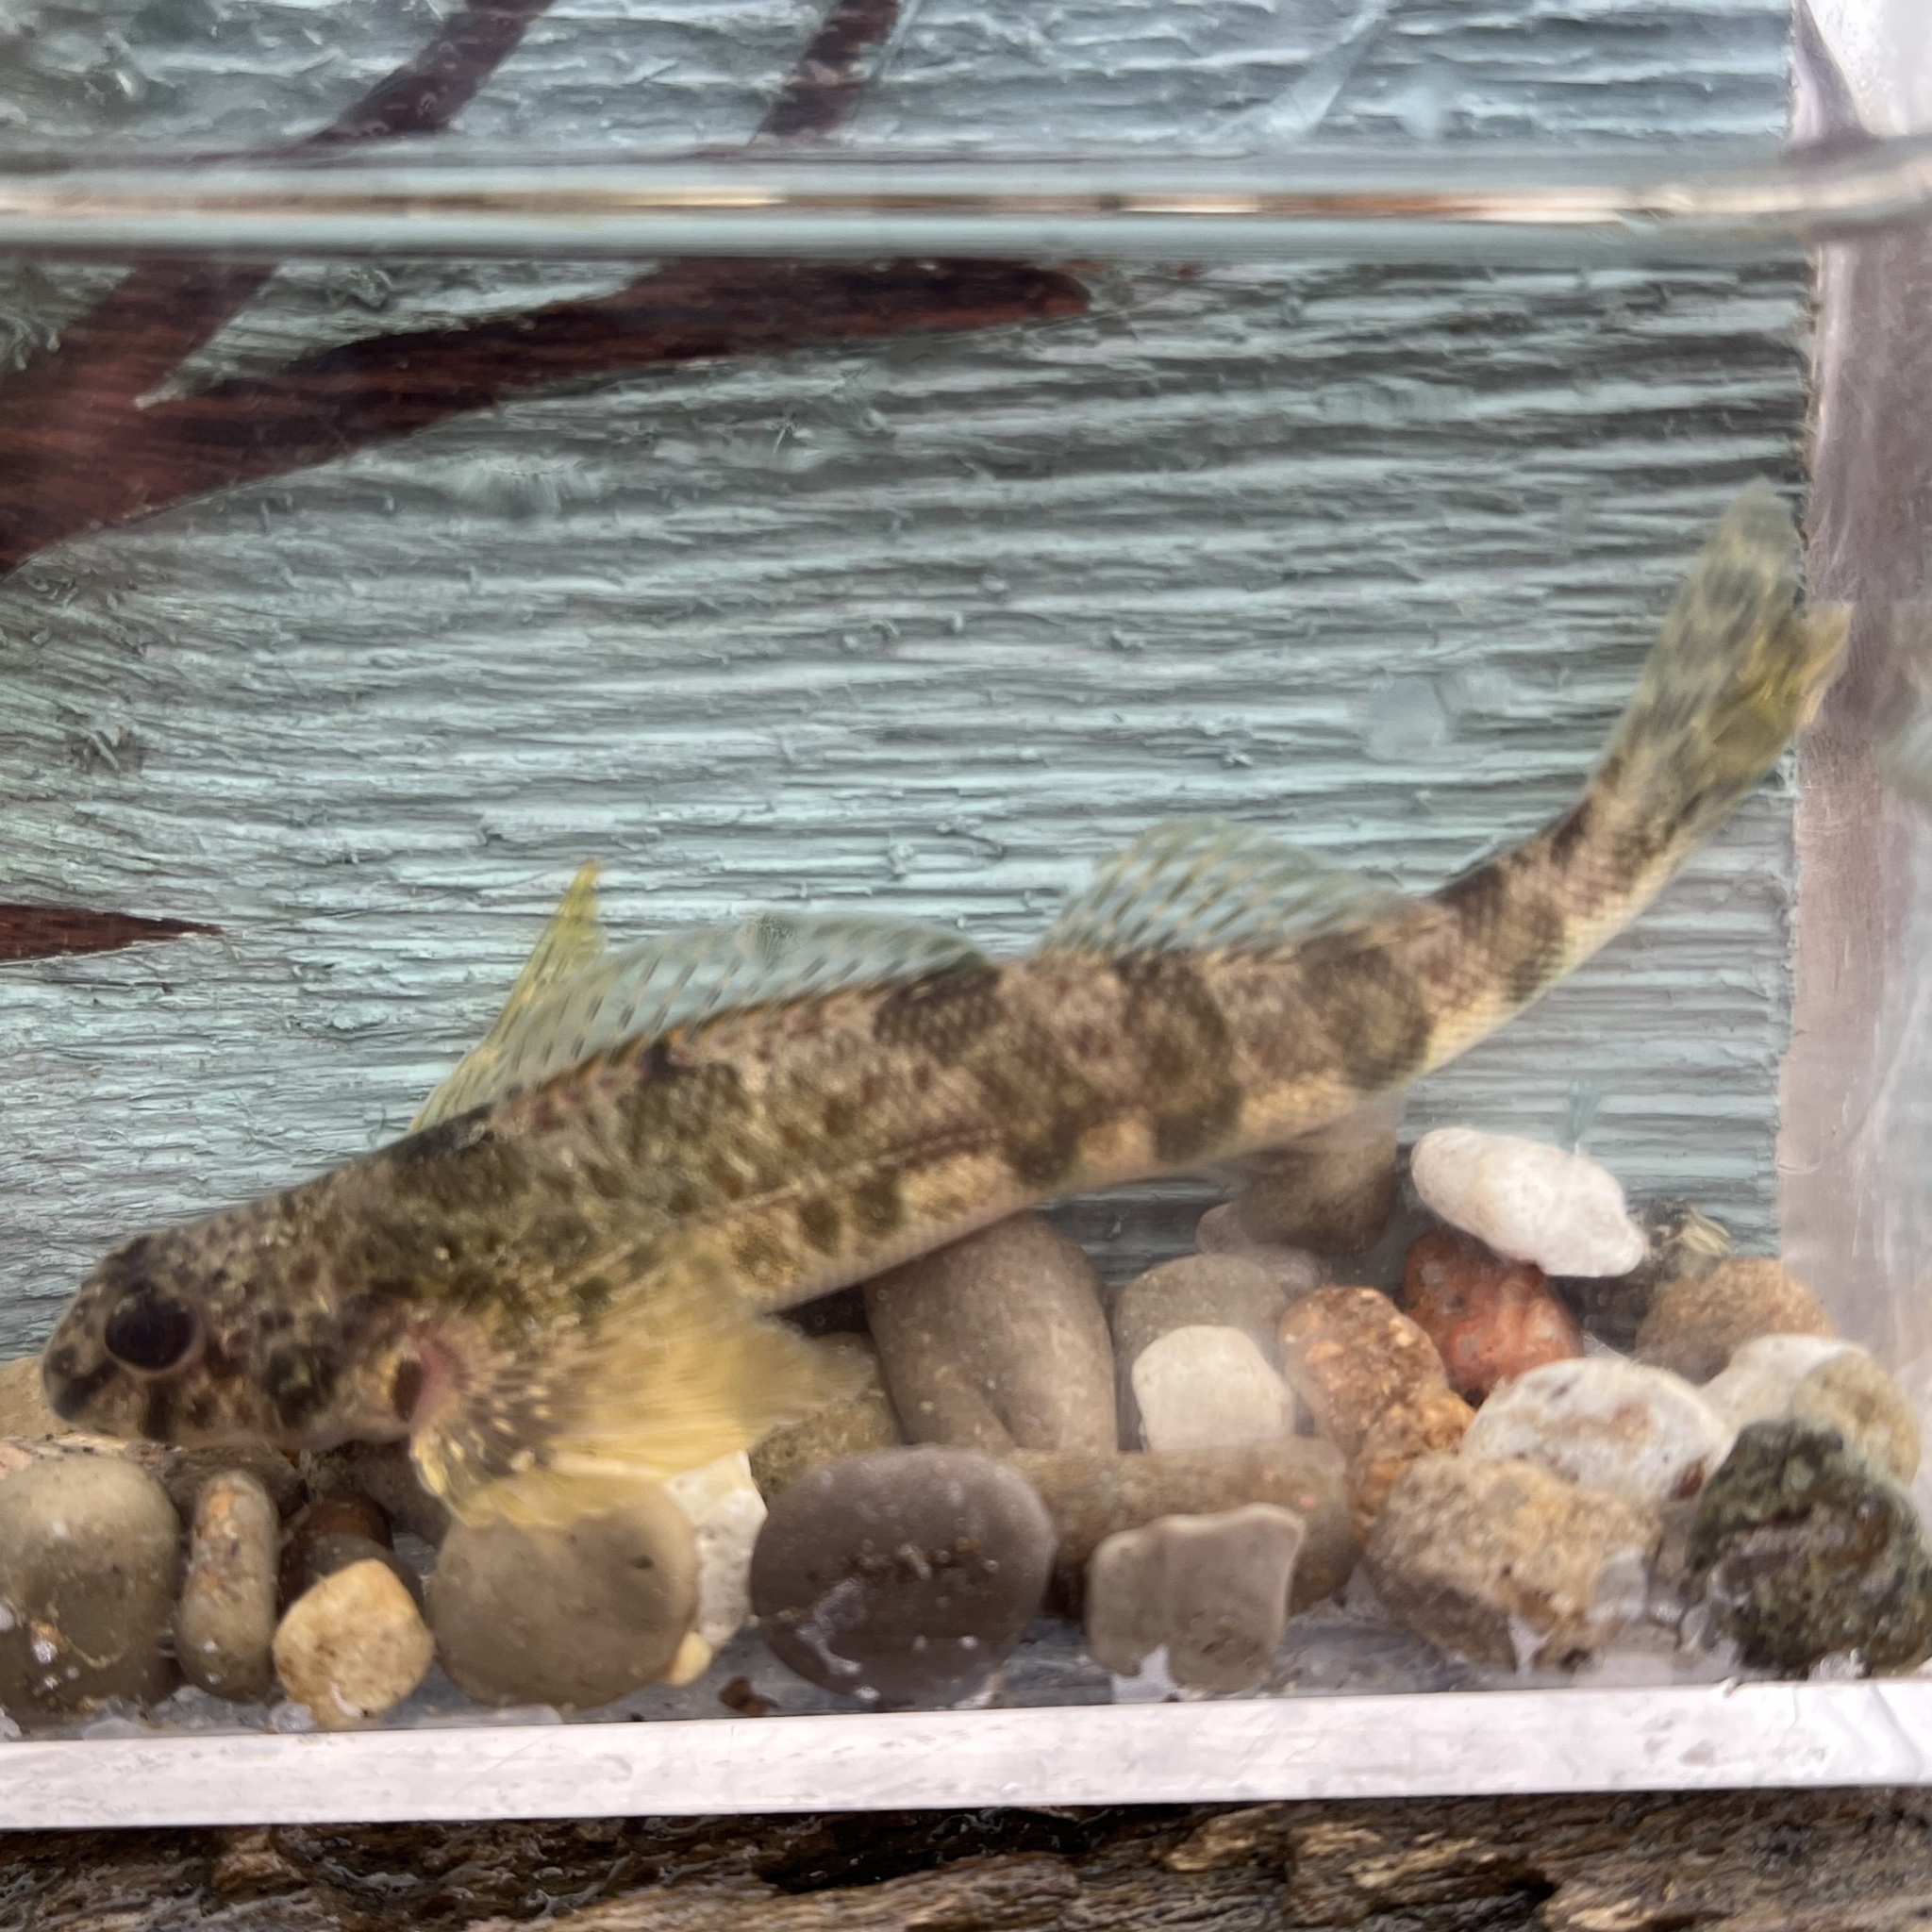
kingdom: Animalia
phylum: Chordata
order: Perciformes
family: Percidae
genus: Etheostoma
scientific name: Etheostoma blennioides
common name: Greenside darter
